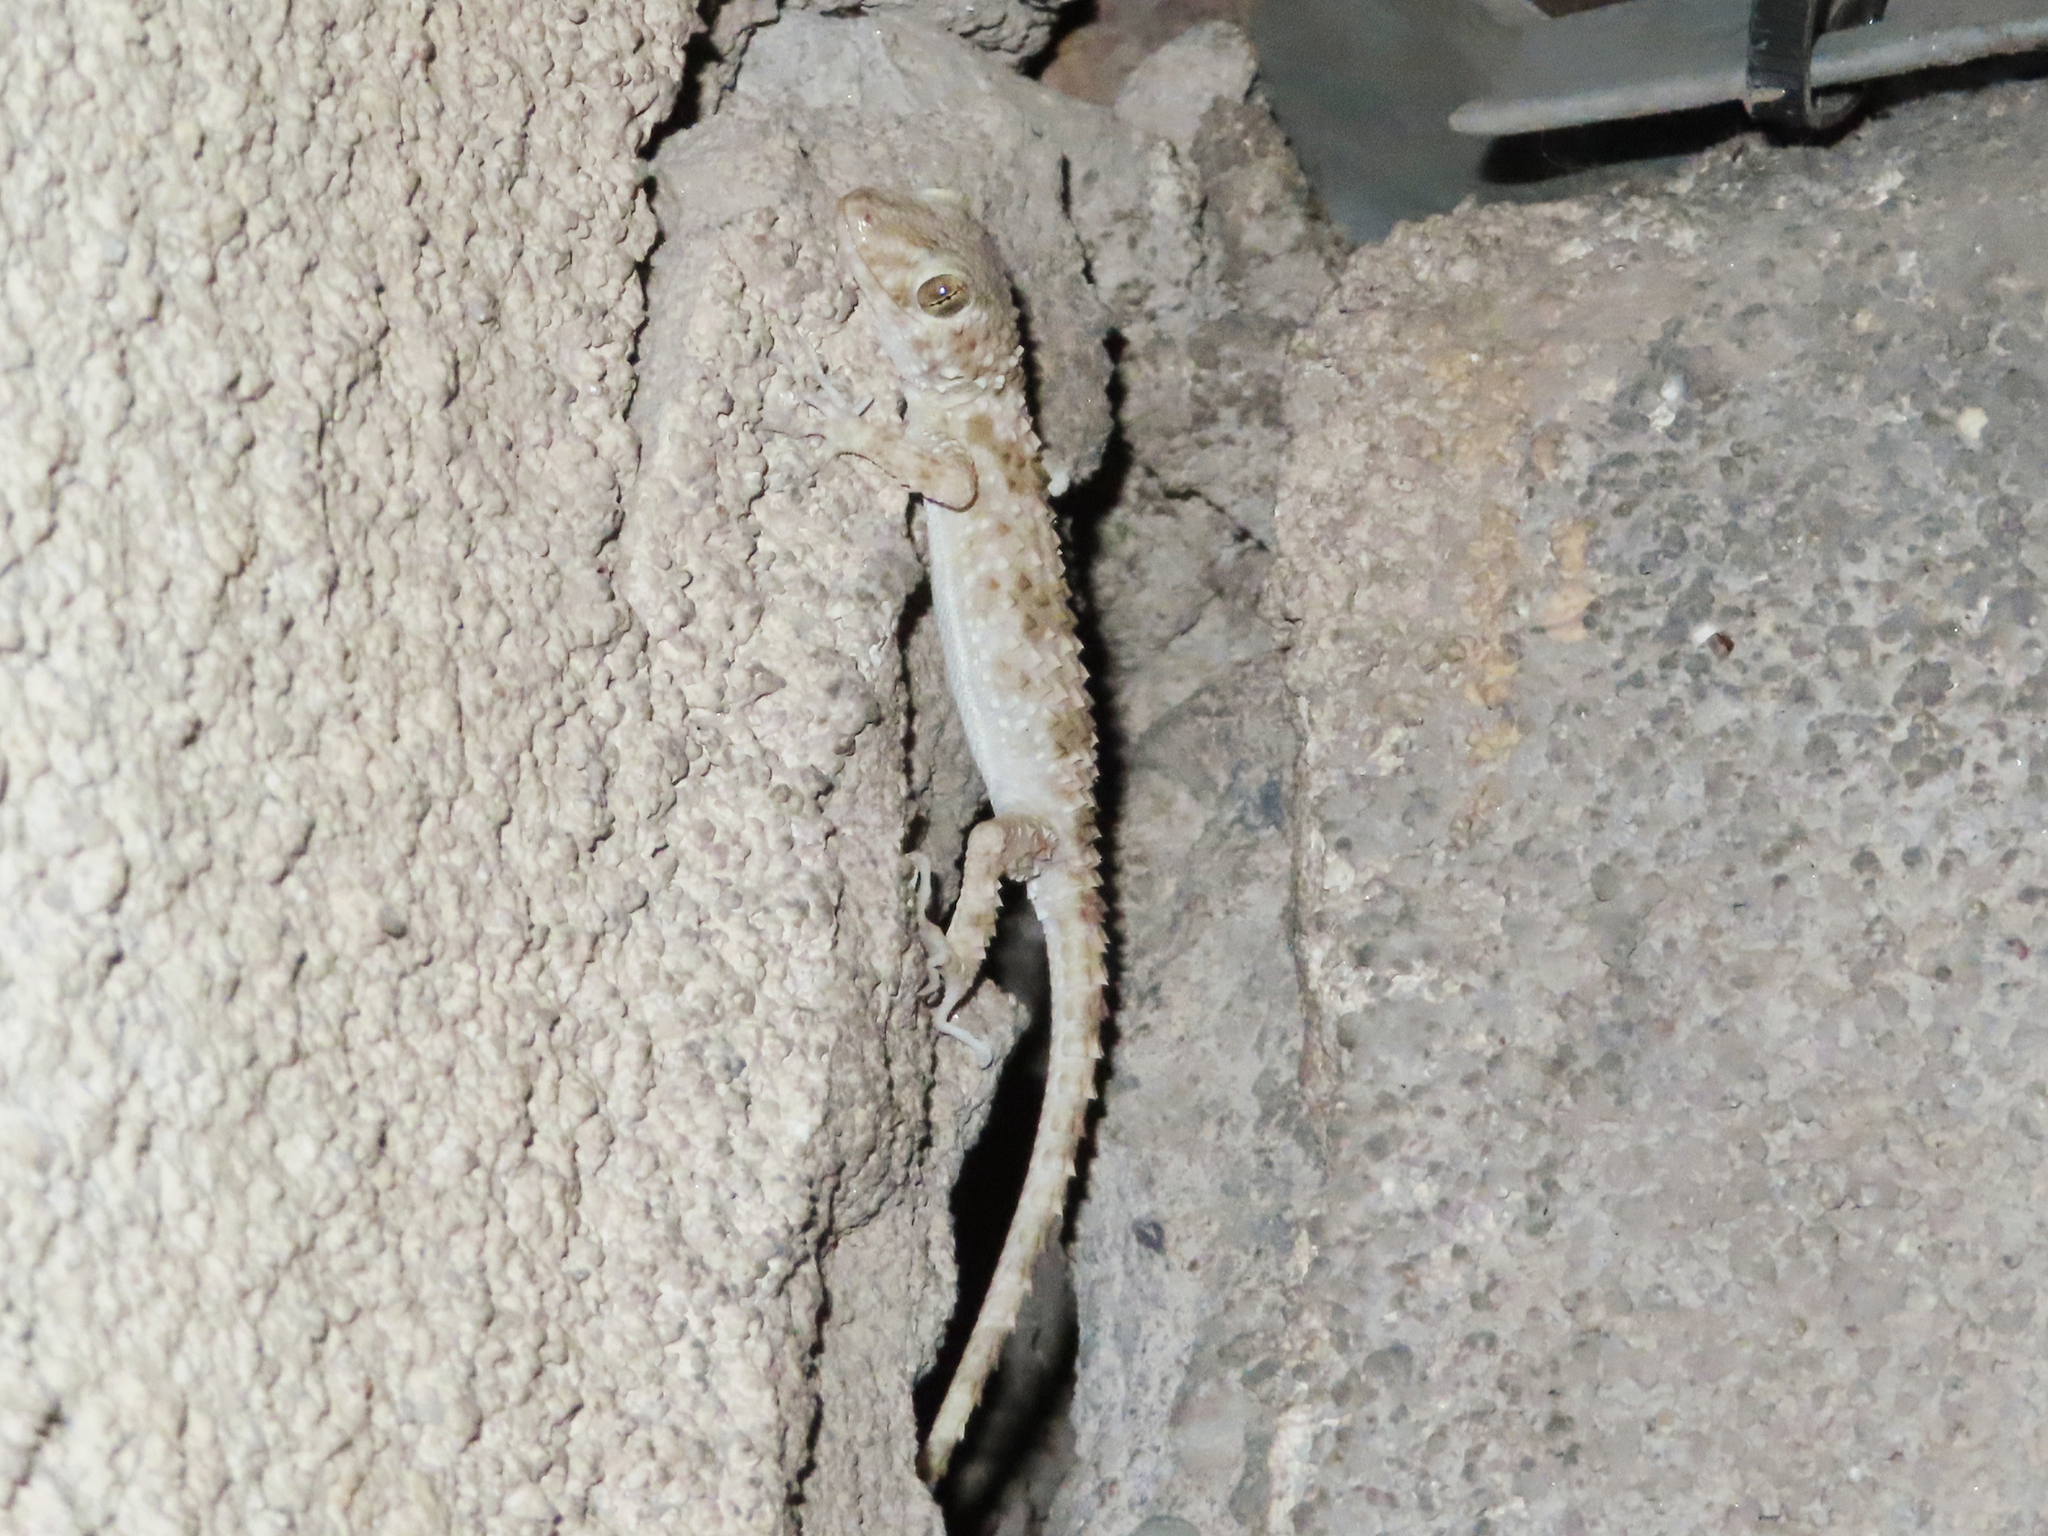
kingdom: Animalia
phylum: Chordata
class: Squamata
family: Gekkonidae
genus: Tenuidactylus
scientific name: Tenuidactylus caspius
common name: Caspian bent-toed gecko
